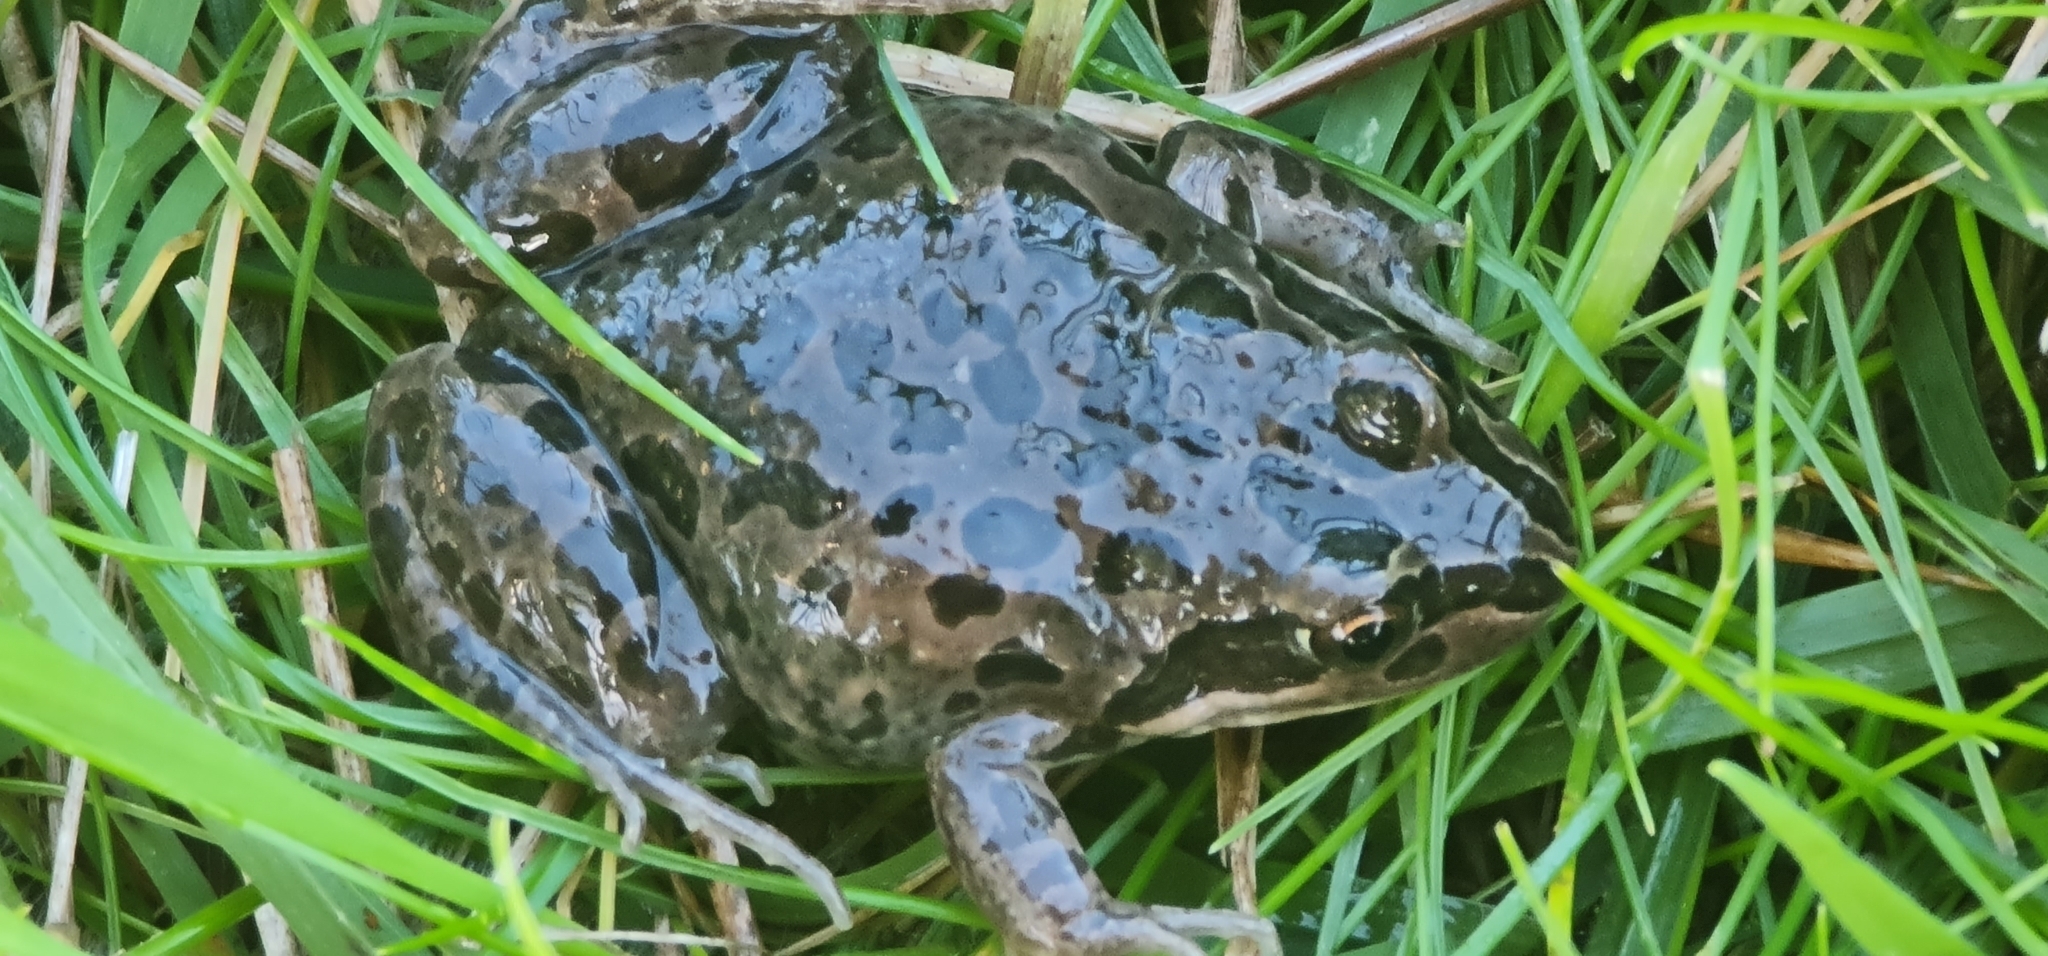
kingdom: Animalia
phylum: Chordata
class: Amphibia
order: Anura
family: Limnodynastidae
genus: Limnodynastes
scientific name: Limnodynastes tasmaniensis
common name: Spotted marsh frog
